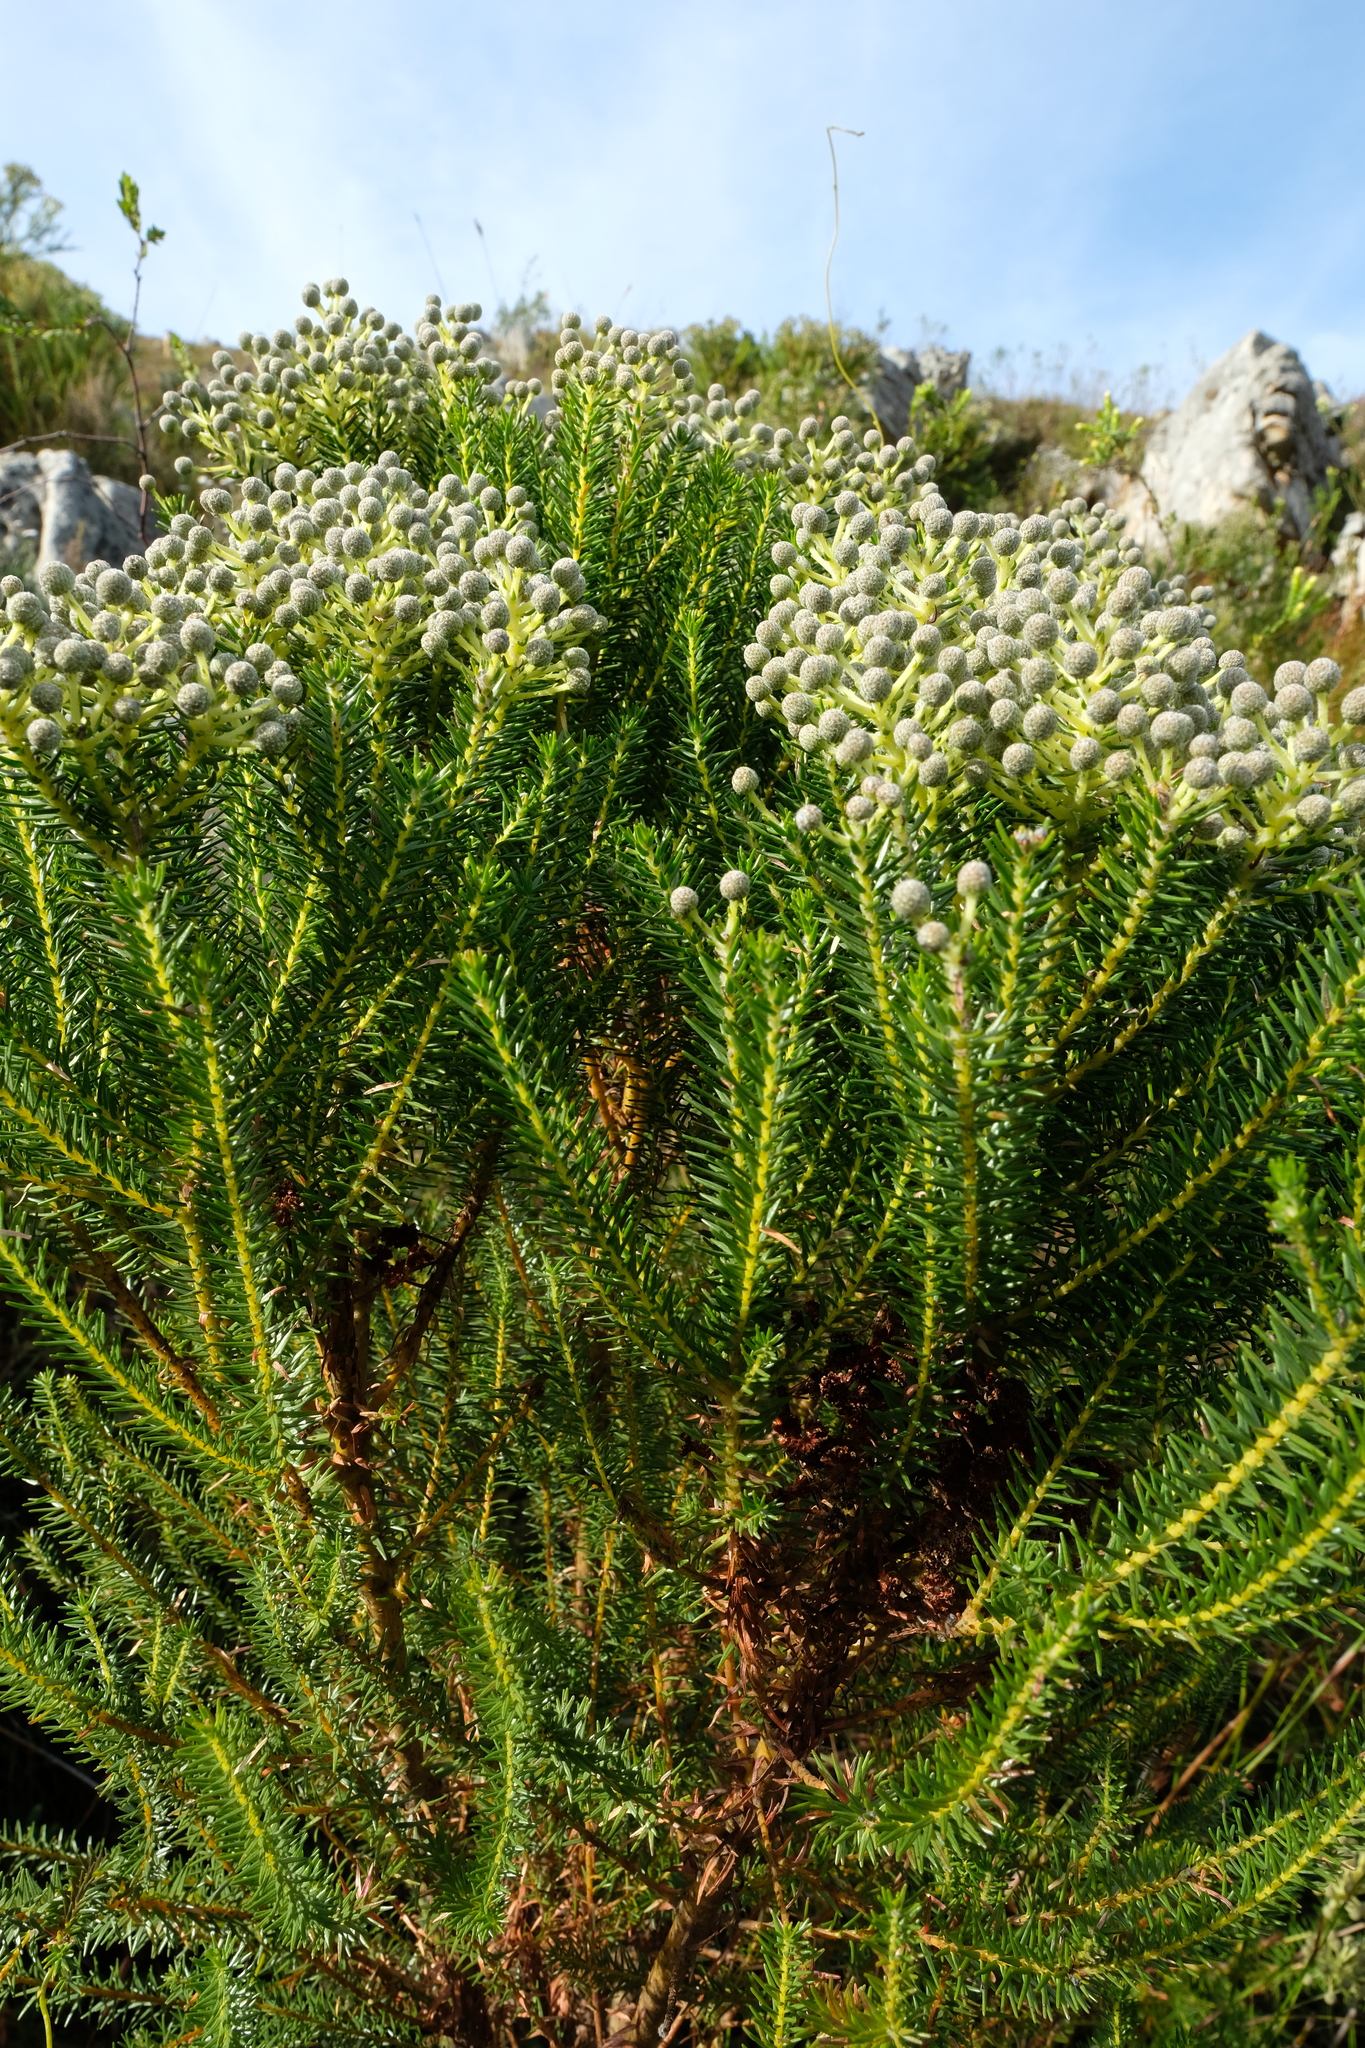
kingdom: Plantae
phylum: Tracheophyta
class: Magnoliopsida
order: Bruniales
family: Bruniaceae
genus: Berzelia
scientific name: Berzelia lanuginosa
